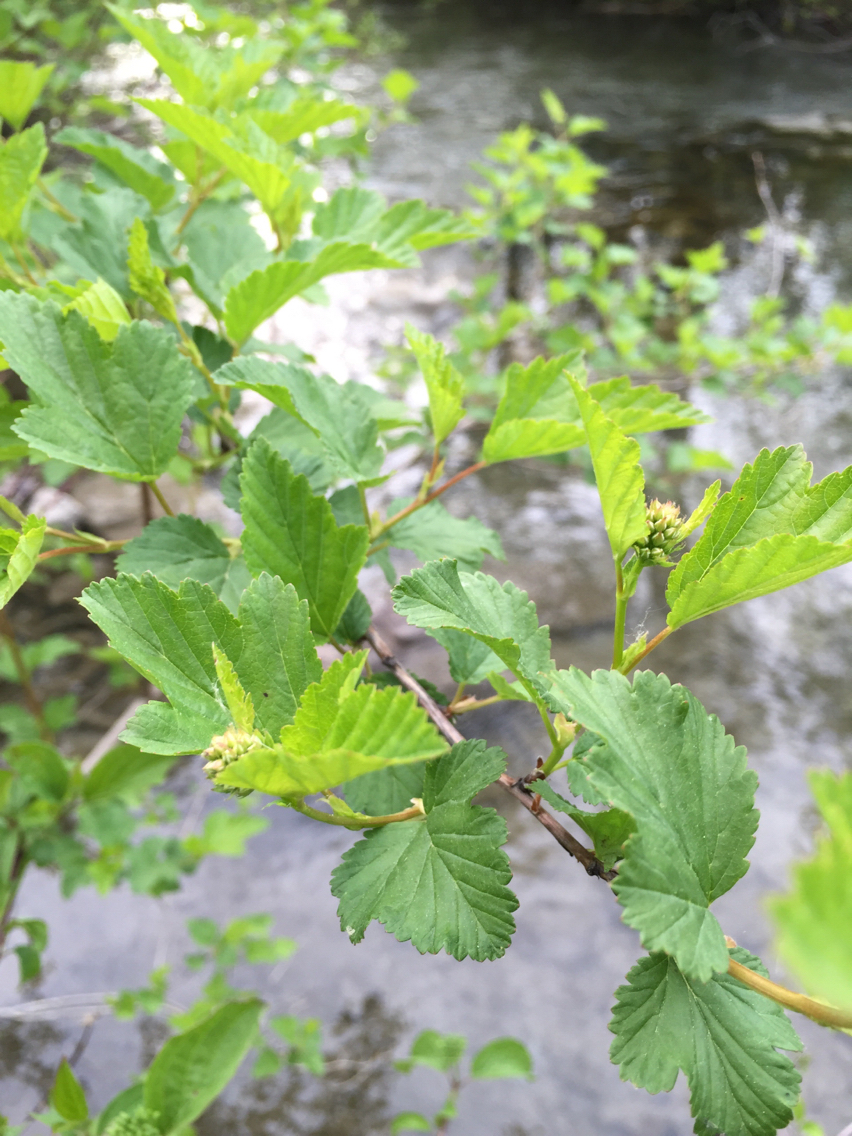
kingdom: Plantae
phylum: Tracheophyta
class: Magnoliopsida
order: Rosales
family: Rosaceae
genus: Physocarpus
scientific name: Physocarpus opulifolius
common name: Ninebark
